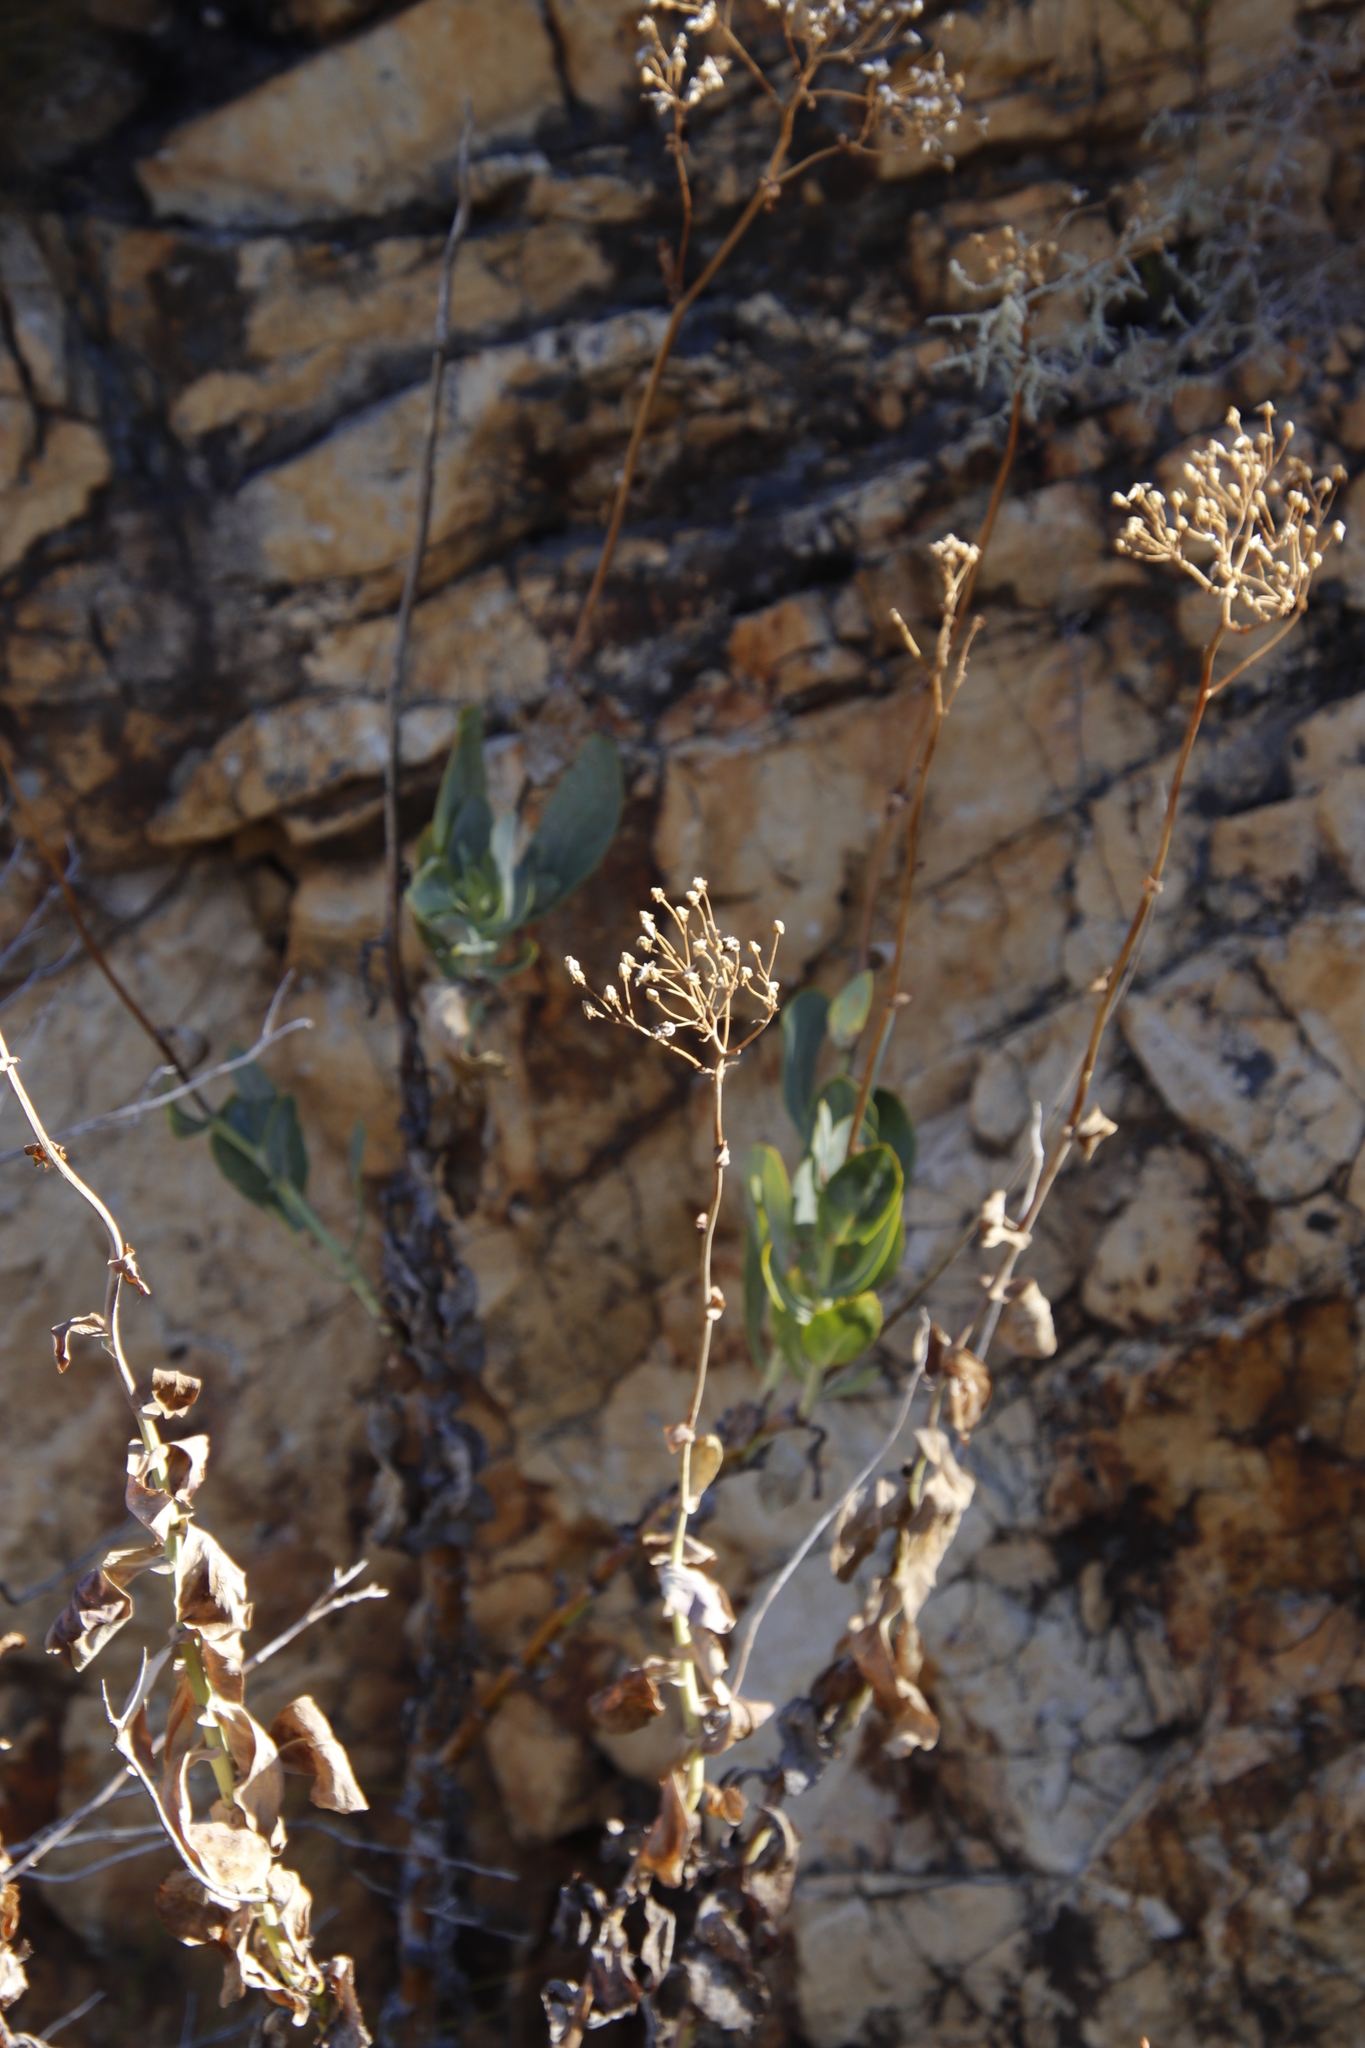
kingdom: Plantae
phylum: Tracheophyta
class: Magnoliopsida
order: Asterales
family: Asteraceae
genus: Othonna
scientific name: Othonna parviflora
